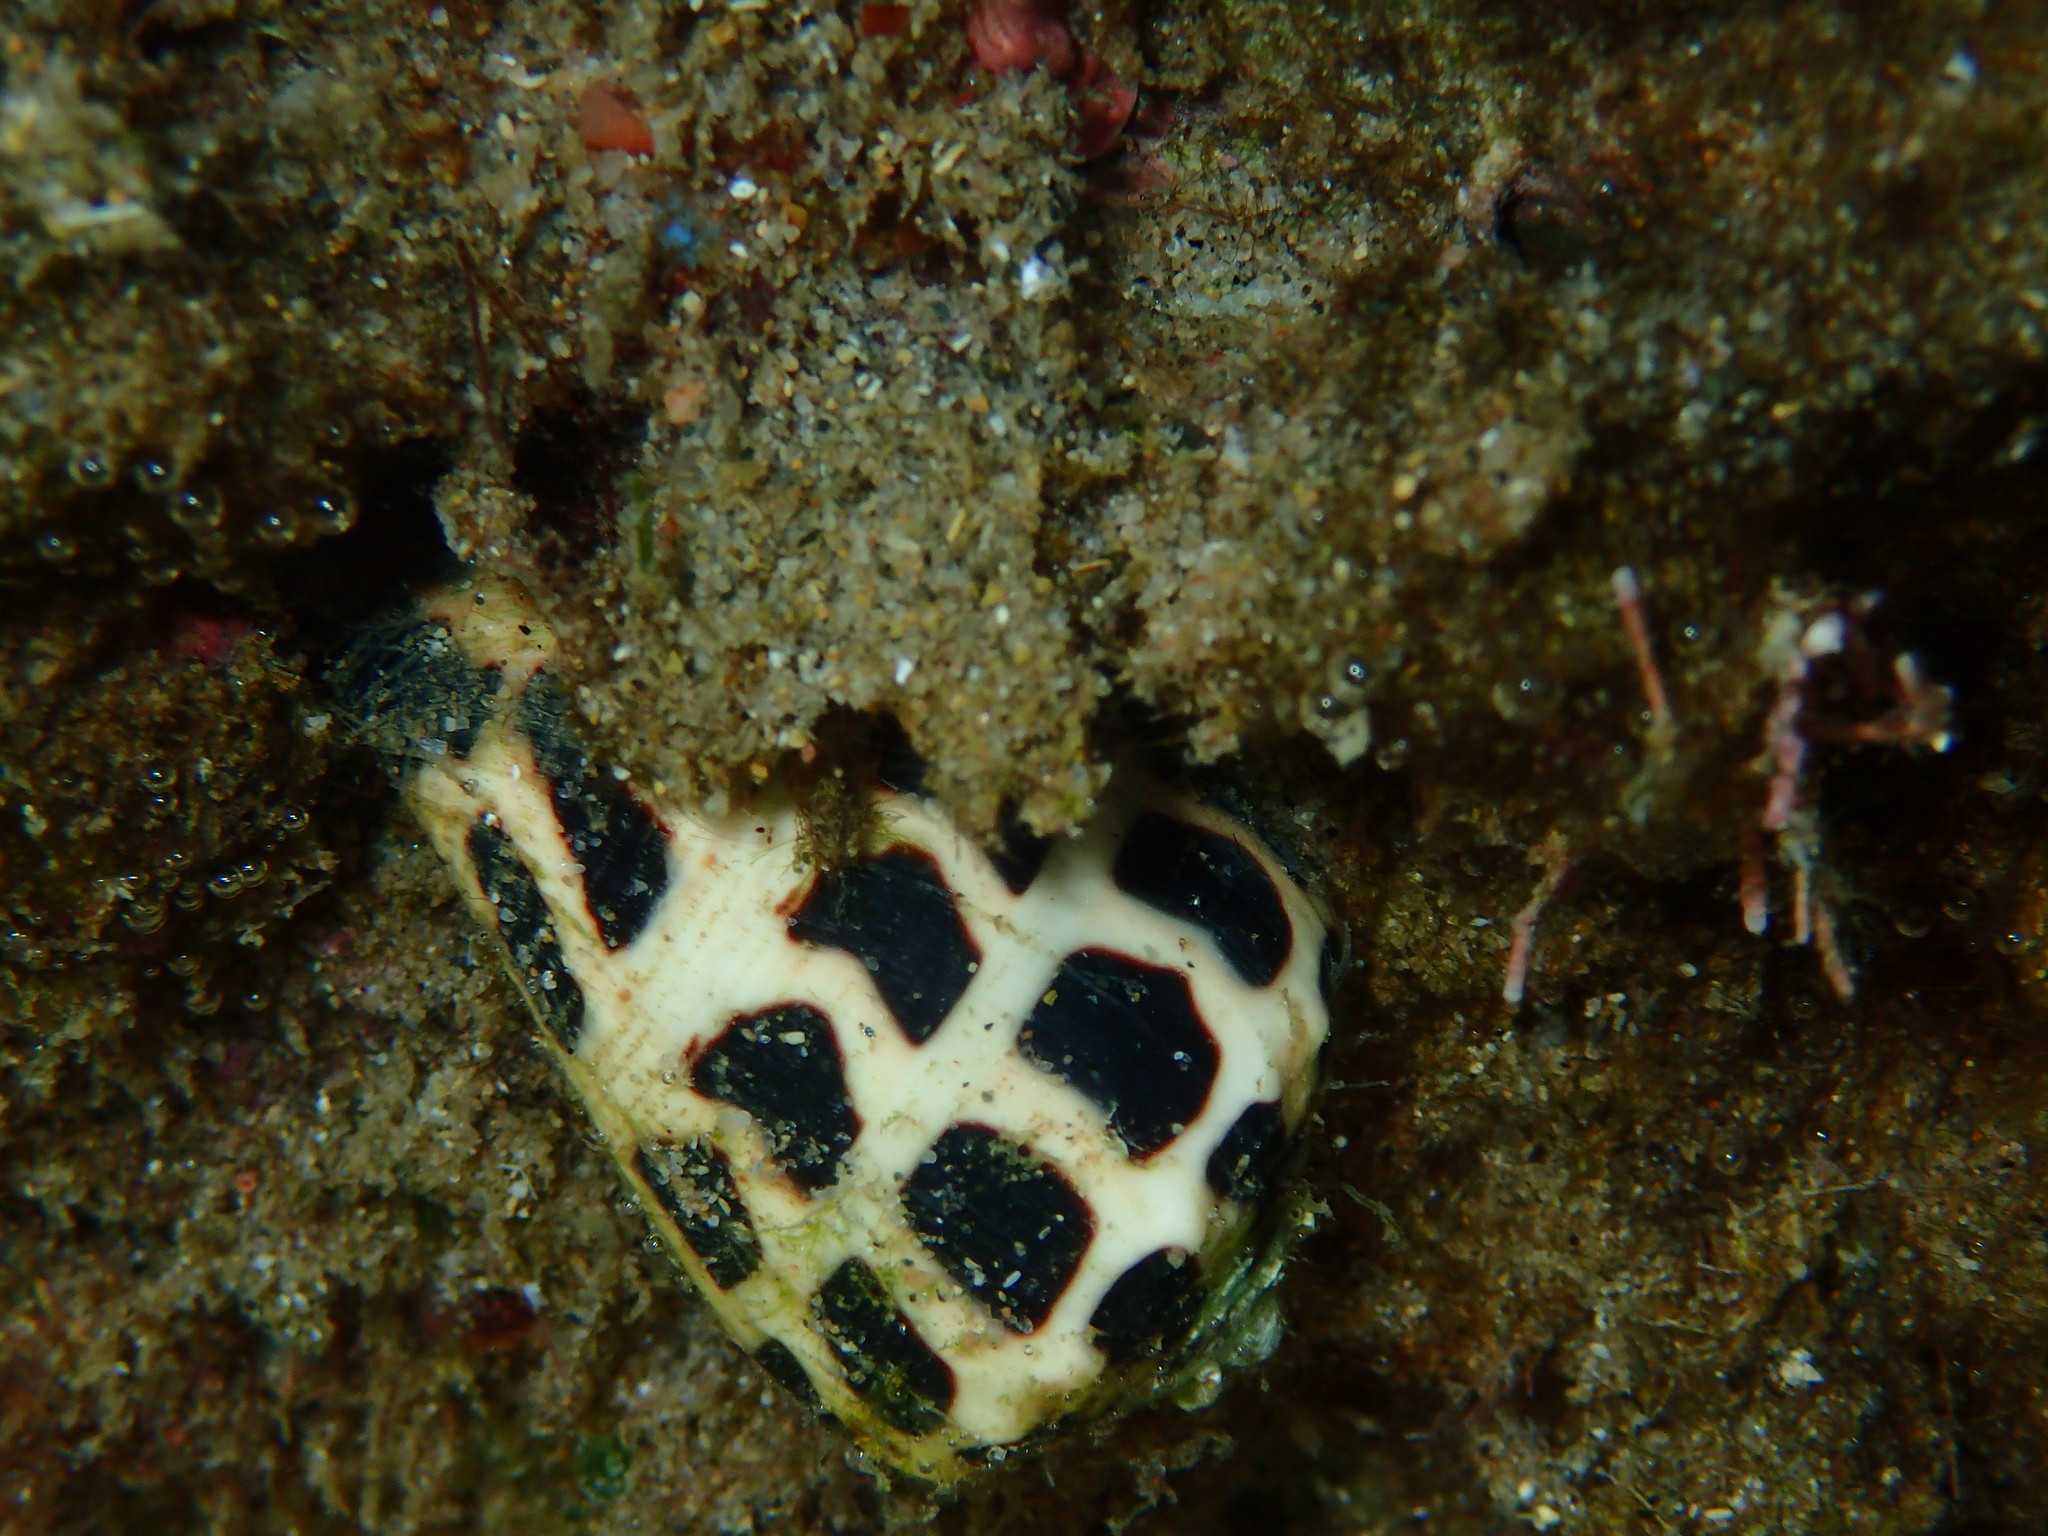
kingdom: Animalia
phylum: Mollusca
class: Gastropoda
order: Neogastropoda
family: Conidae
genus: Conus
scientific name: Conus ebraeus
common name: Hebrew cone
